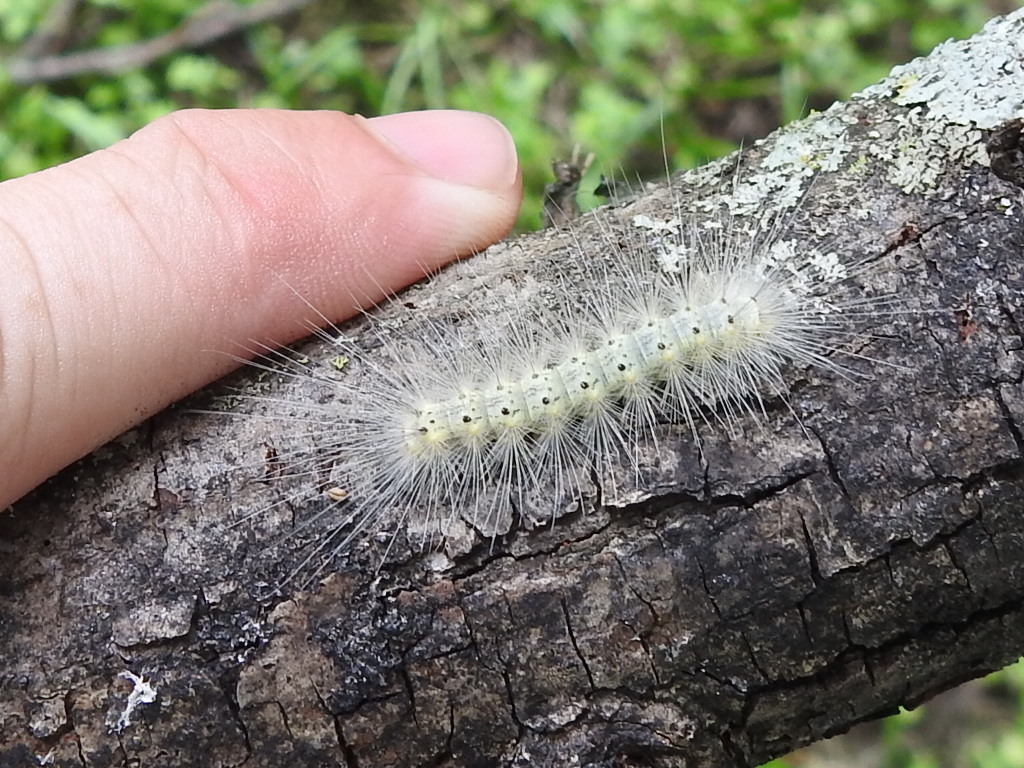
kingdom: Animalia
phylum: Arthropoda
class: Insecta
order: Lepidoptera
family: Erebidae
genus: Hyphantria
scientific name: Hyphantria cunea
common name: American white moth
